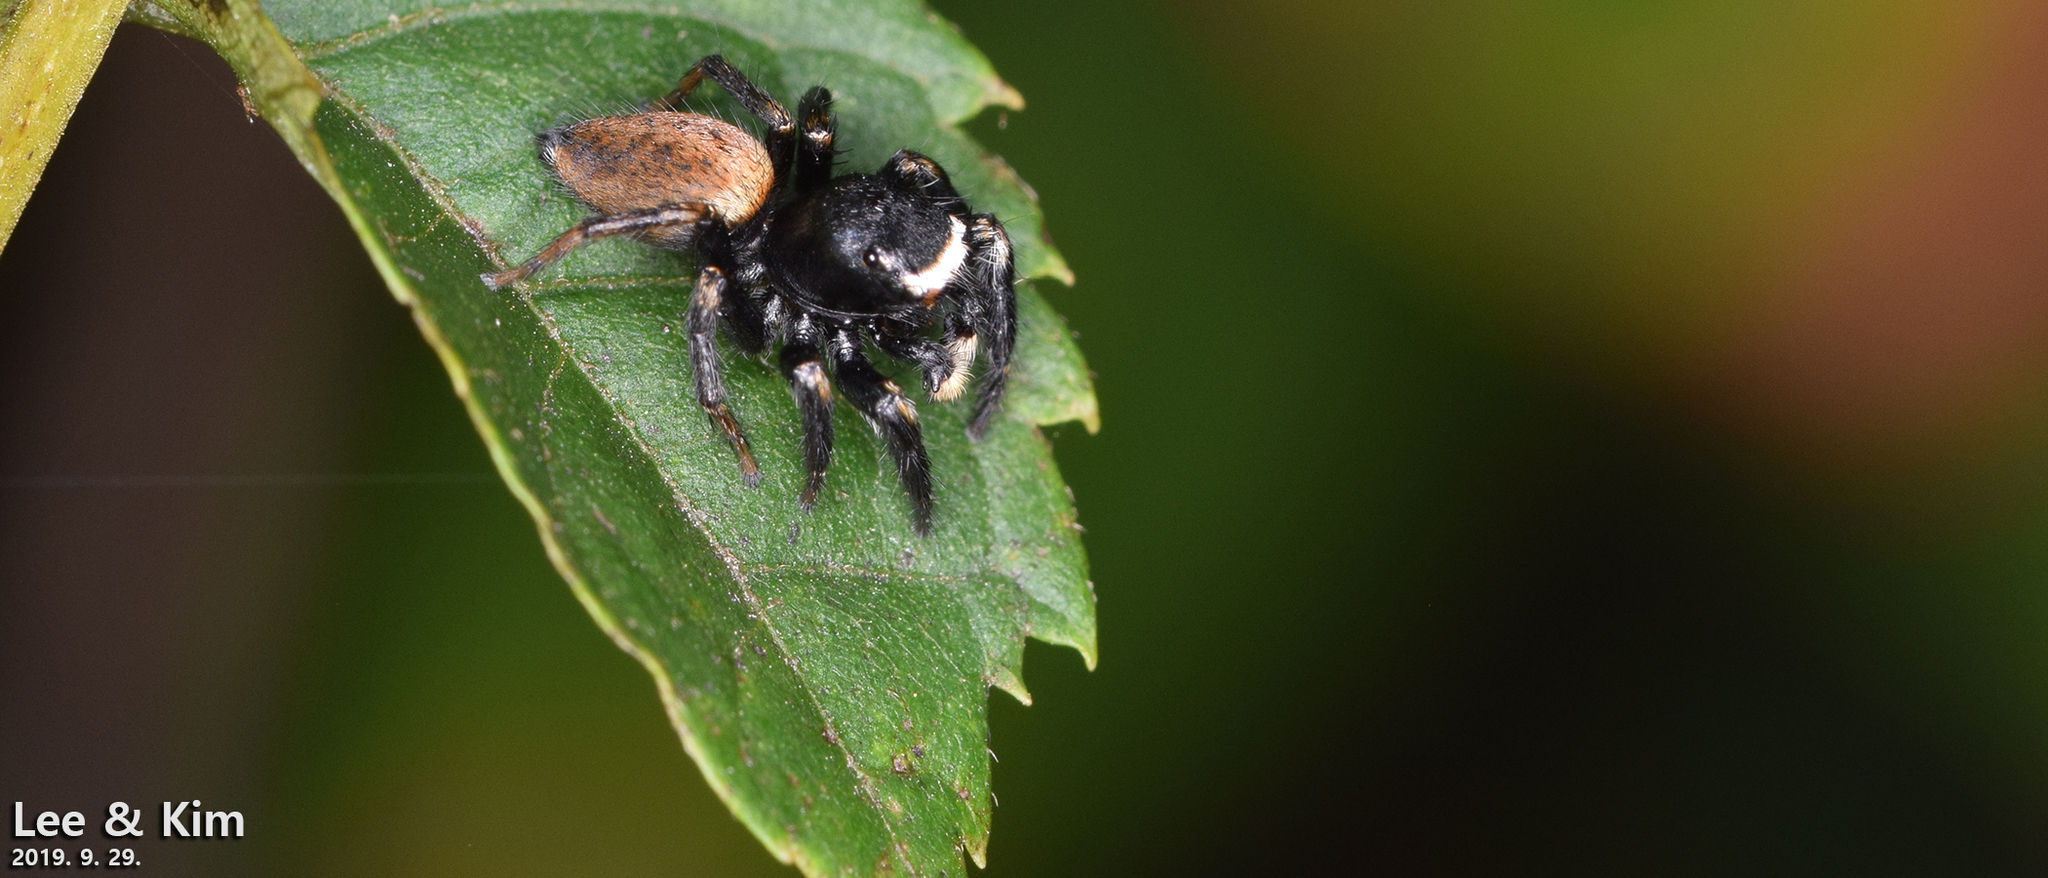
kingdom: Animalia
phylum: Arthropoda
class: Arachnida
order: Araneae
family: Salticidae
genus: Evarcha
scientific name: Evarcha albaria
